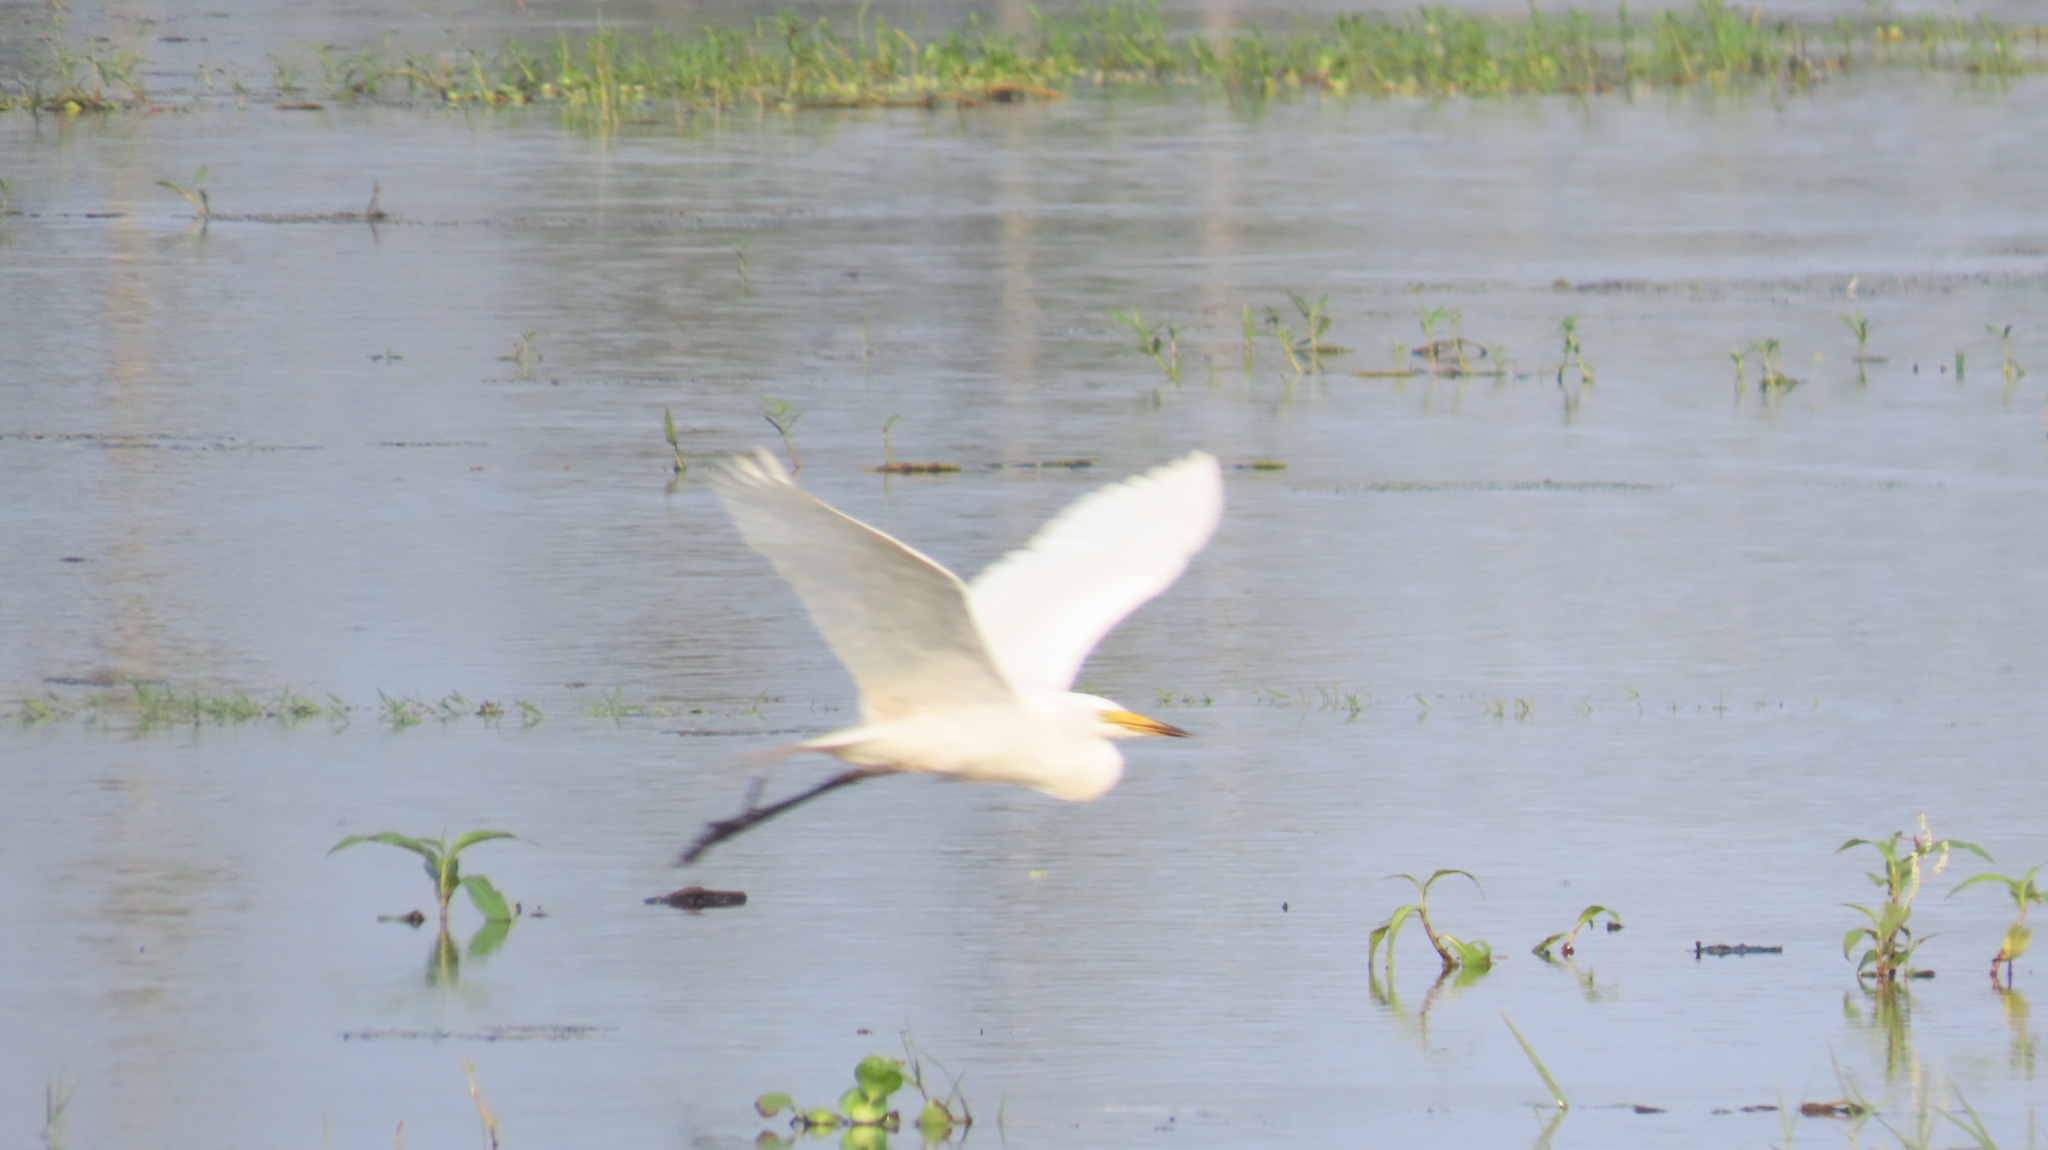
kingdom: Animalia
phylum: Chordata
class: Aves
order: Pelecaniformes
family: Ardeidae
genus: Egretta
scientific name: Egretta intermedia
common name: Intermediate egret
